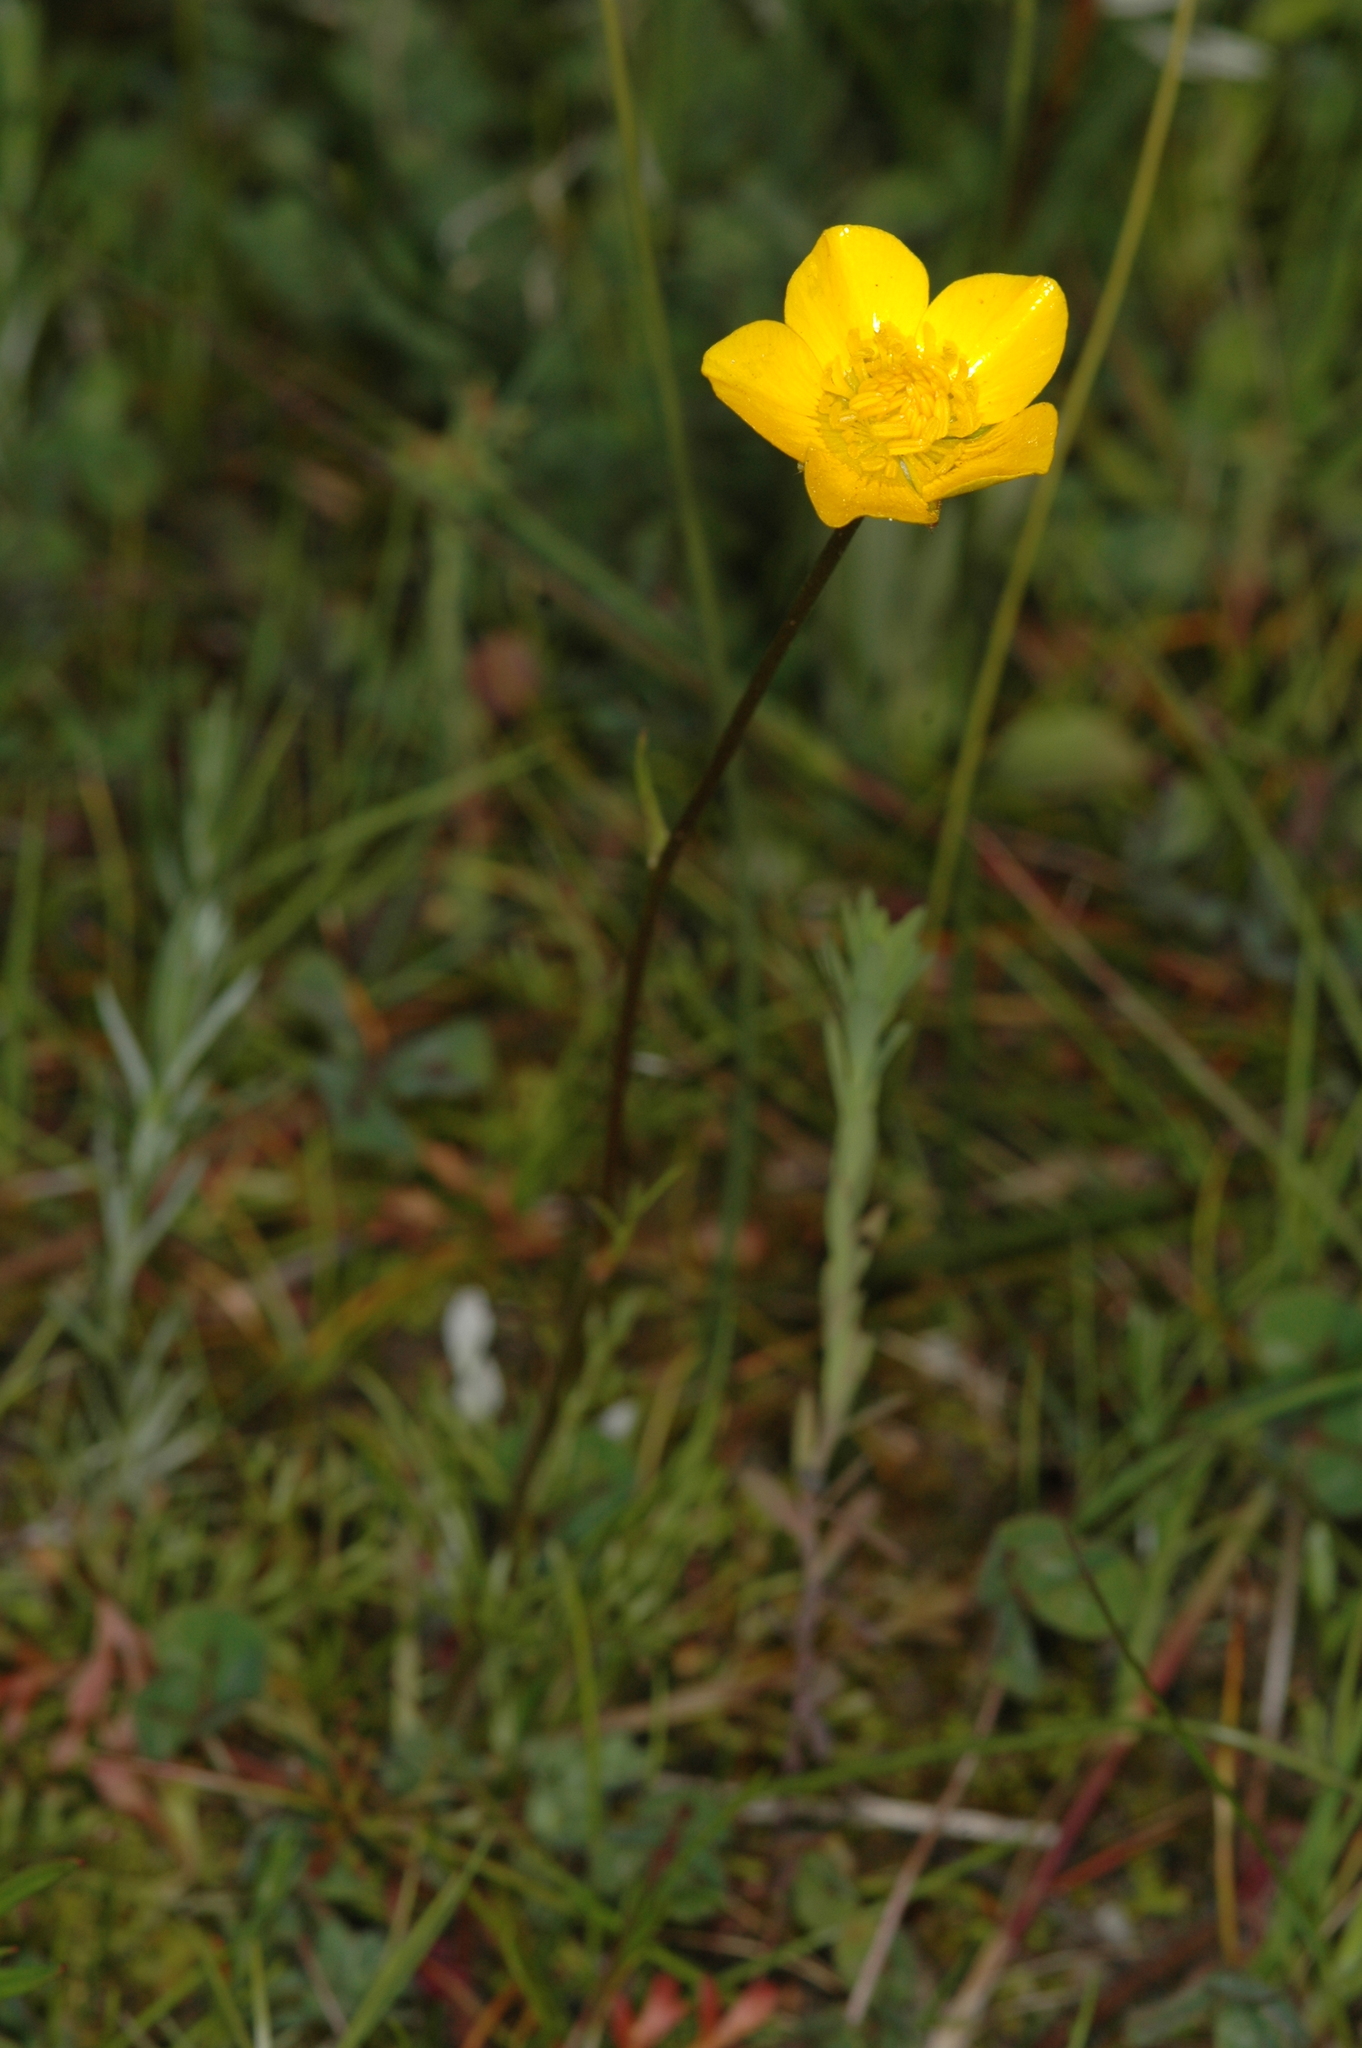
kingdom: Plantae
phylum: Tracheophyta
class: Magnoliopsida
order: Ranunculales
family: Ranunculaceae
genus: Anemone
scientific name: Anemone palmata
